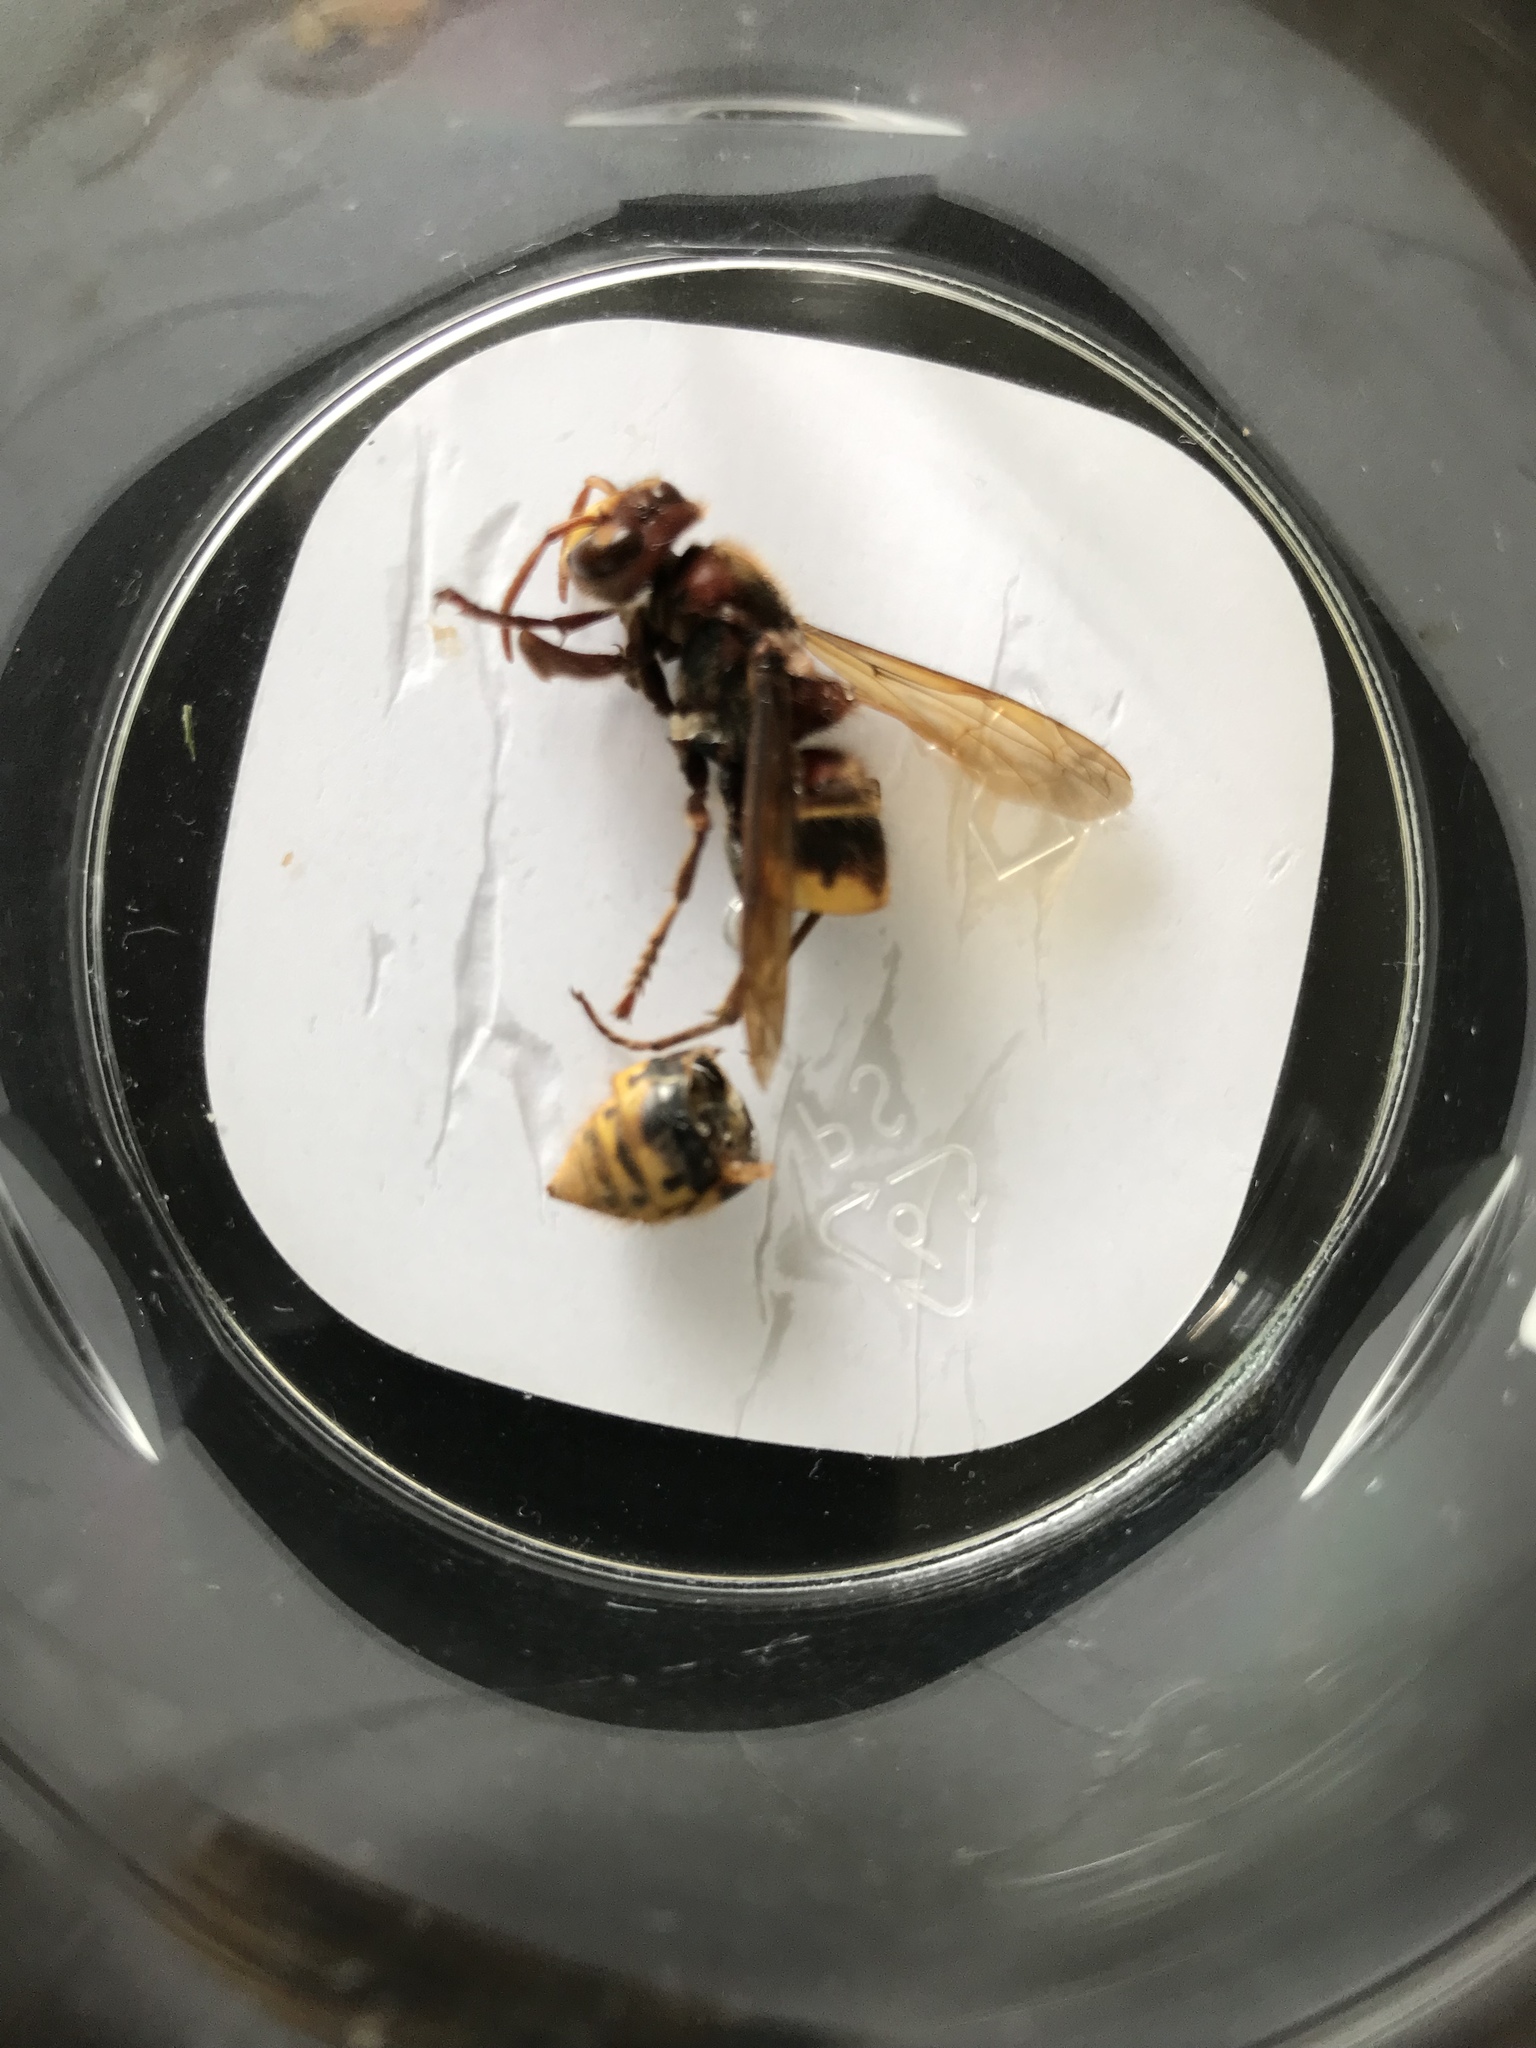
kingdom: Animalia
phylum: Arthropoda
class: Insecta
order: Hymenoptera
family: Vespidae
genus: Vespa
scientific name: Vespa crabro
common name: Hornet
